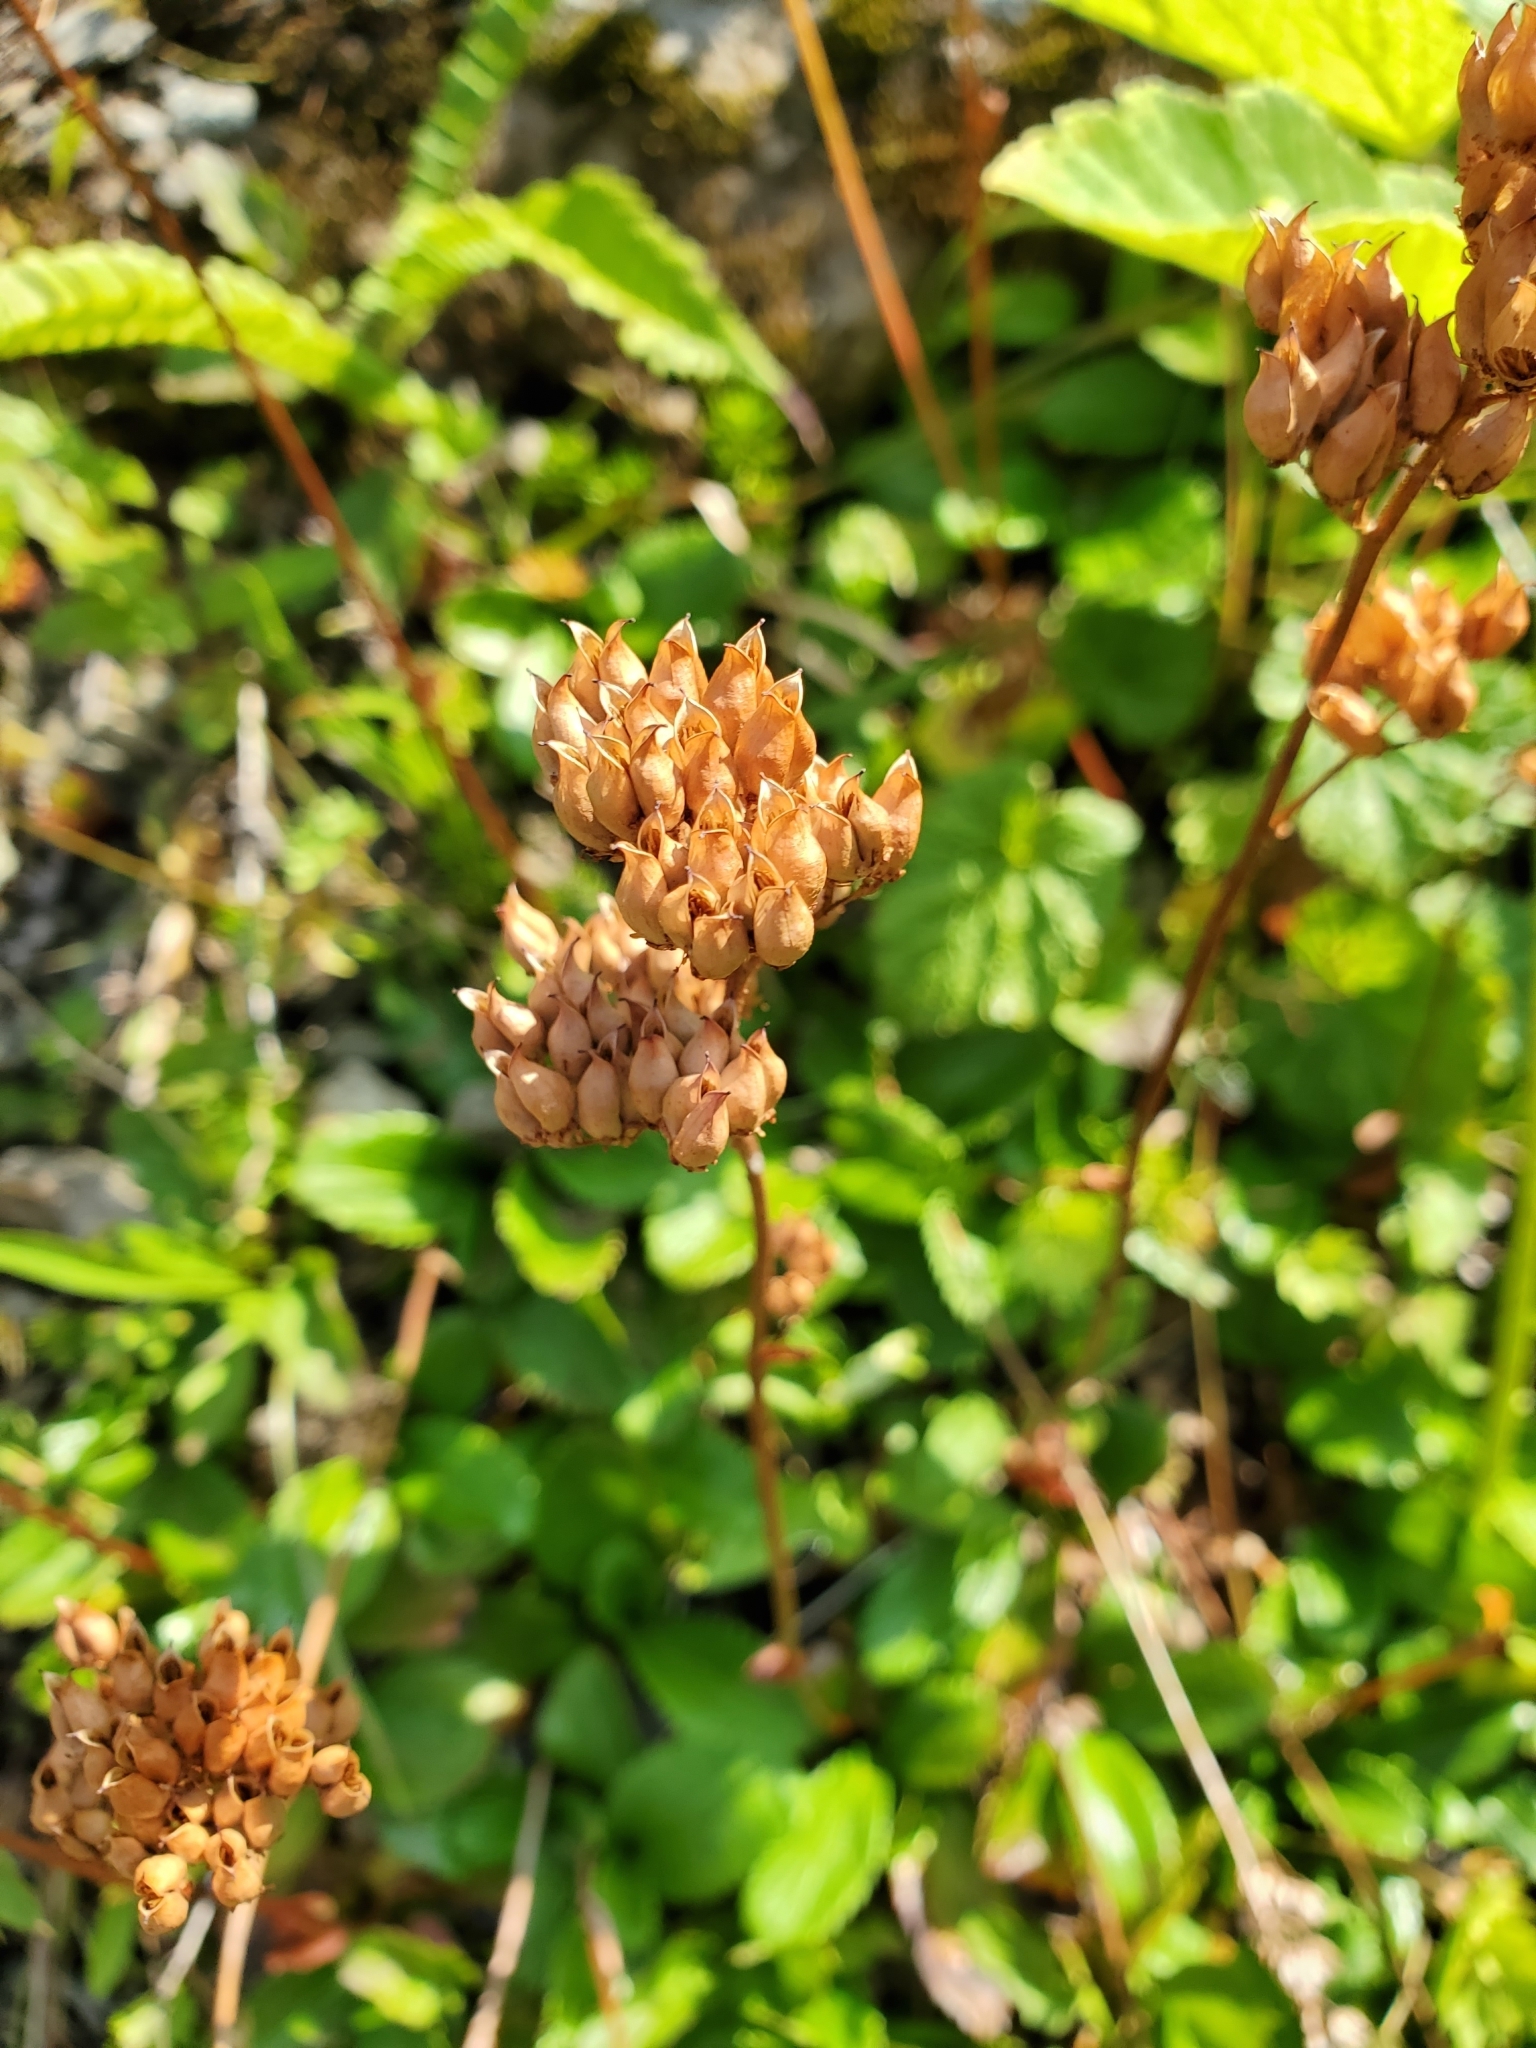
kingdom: Plantae
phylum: Tracheophyta
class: Magnoliopsida
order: Saxifragales
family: Saxifragaceae
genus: Leptarrhena
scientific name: Leptarrhena pyrolifolia
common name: Leatherleaf-saxifrage
